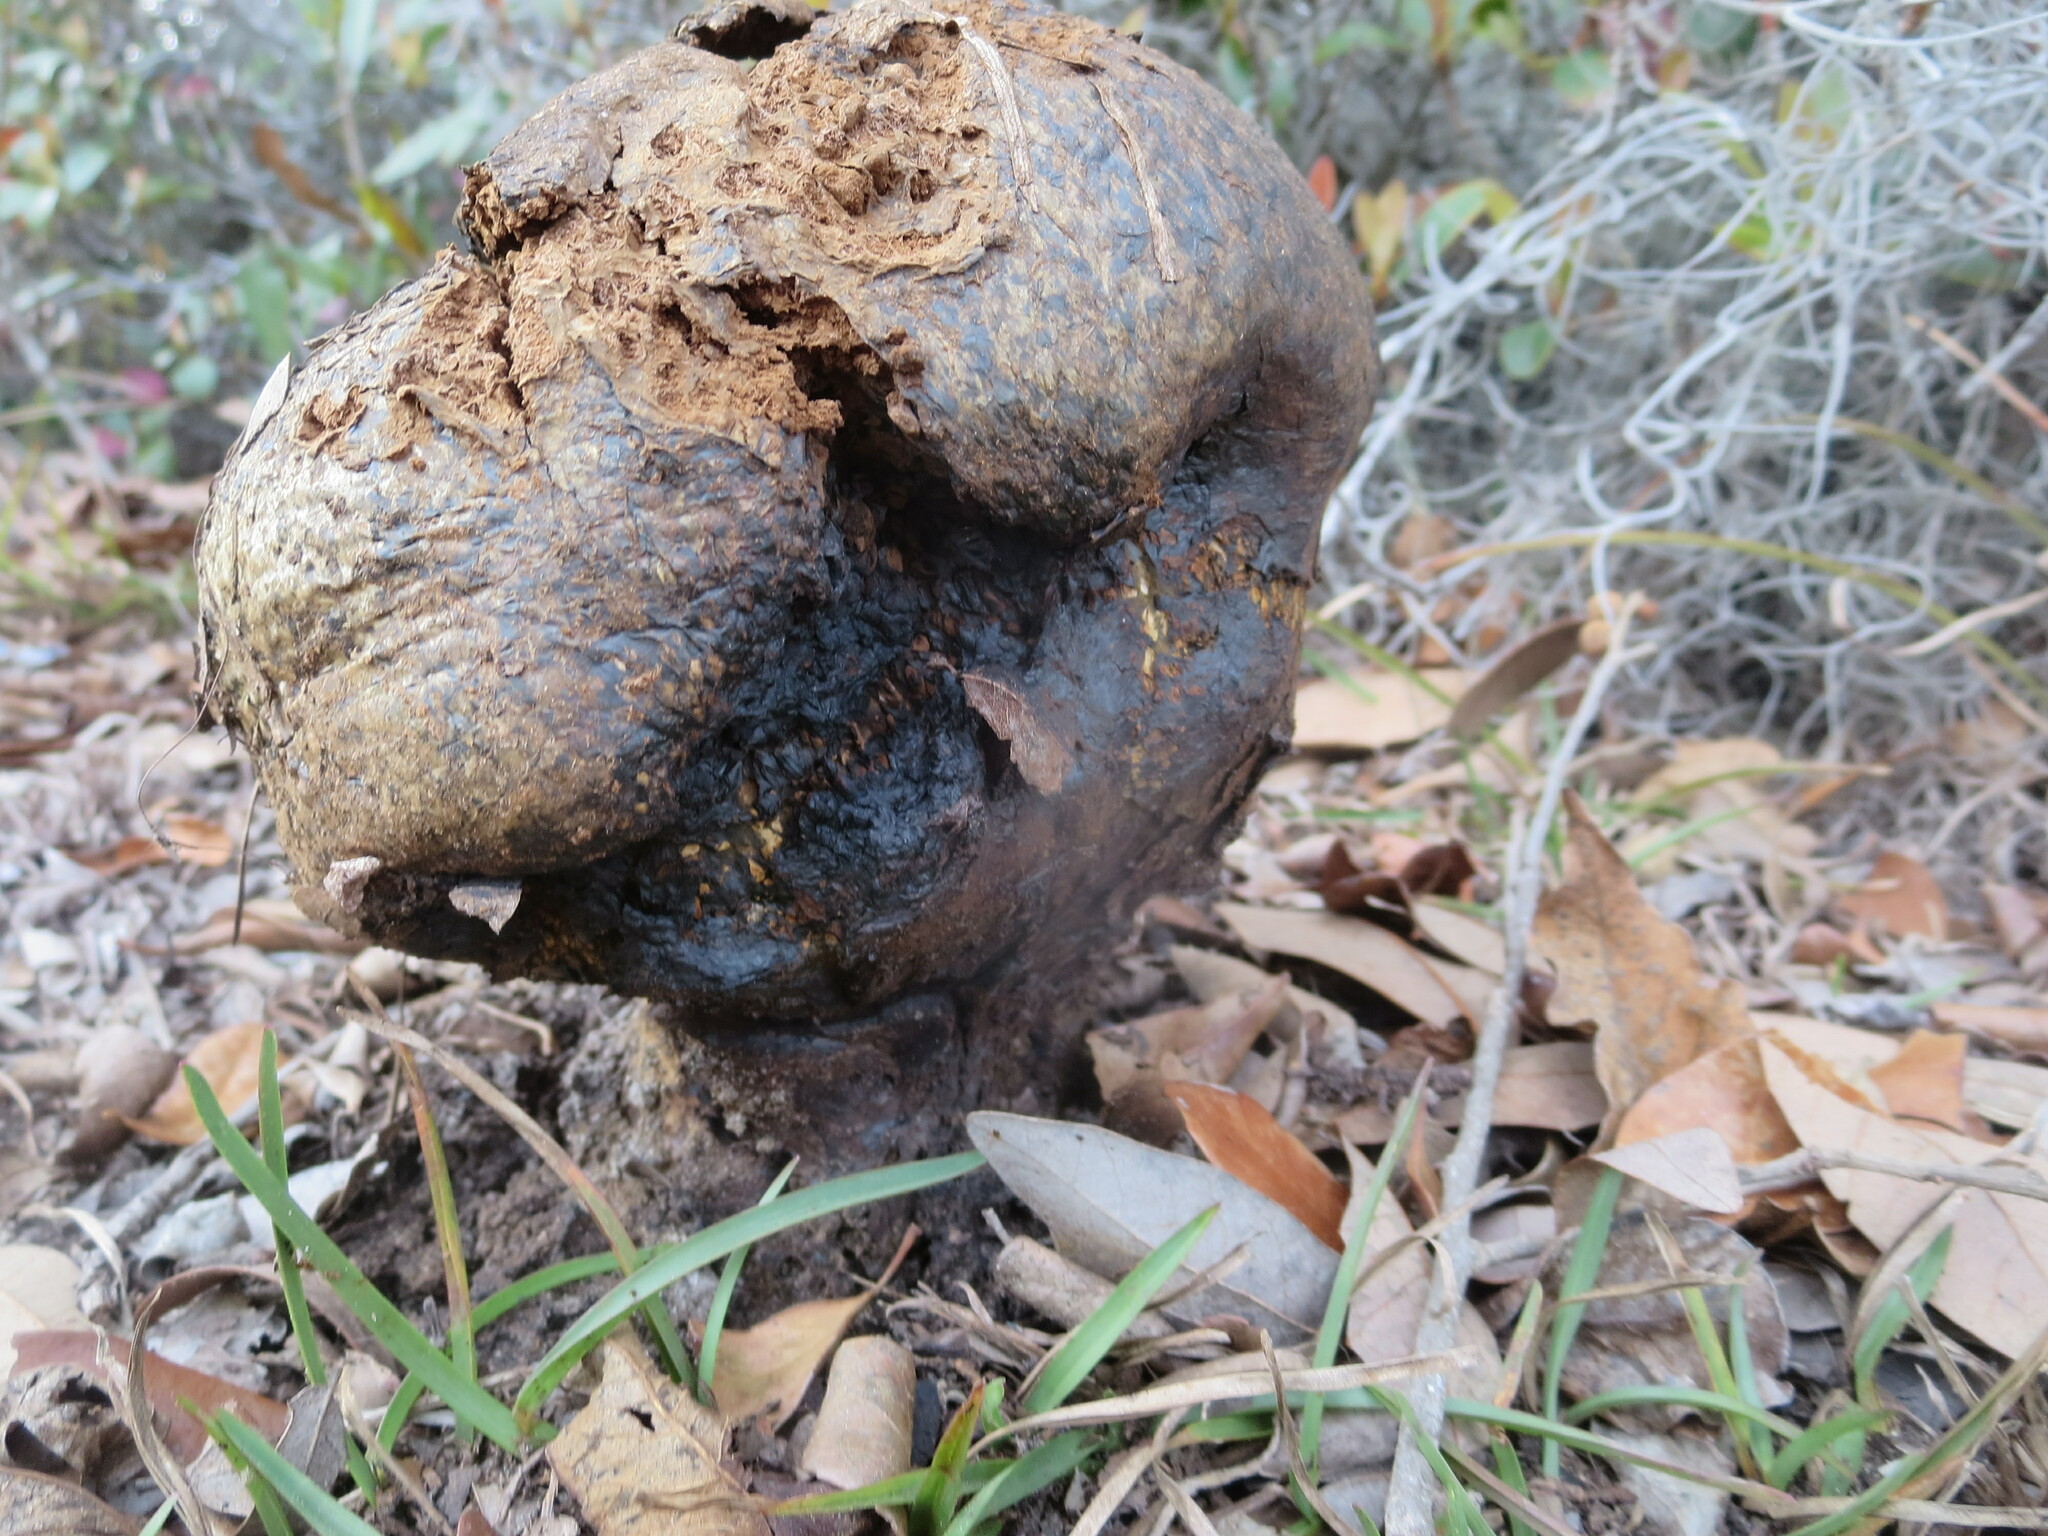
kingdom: Fungi
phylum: Basidiomycota
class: Agaricomycetes
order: Boletales
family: Sclerodermataceae
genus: Pisolithus
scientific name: Pisolithus arenarius
